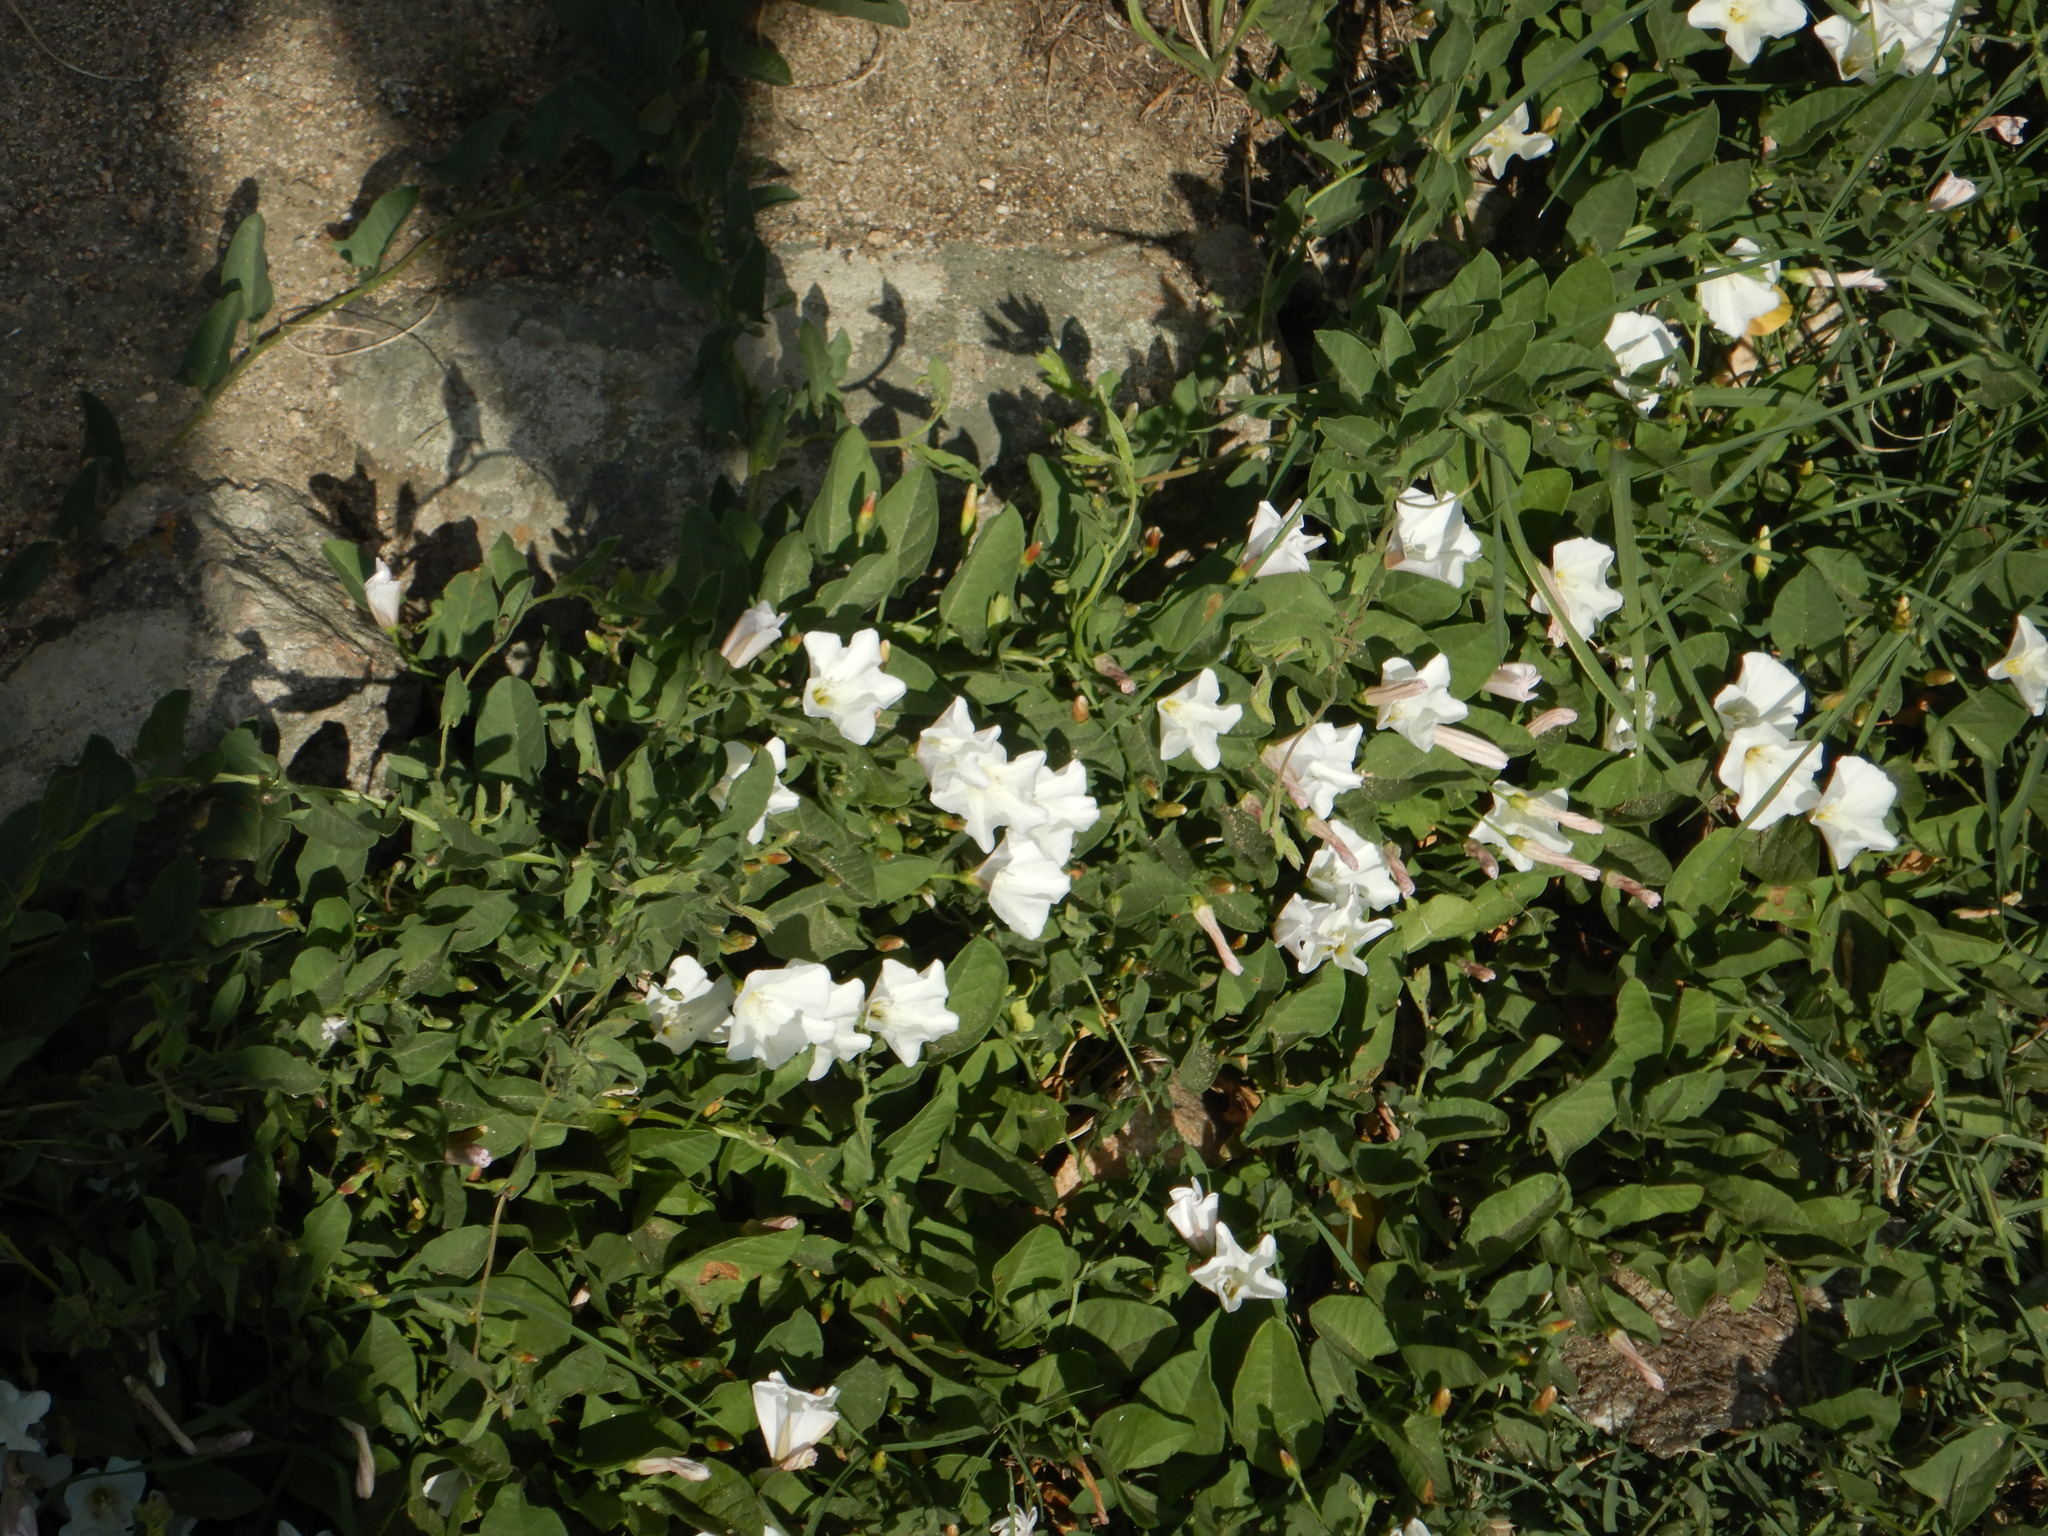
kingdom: Plantae
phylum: Tracheophyta
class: Magnoliopsida
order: Solanales
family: Convolvulaceae
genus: Convolvulus
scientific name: Convolvulus arvensis
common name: Field bindweed
